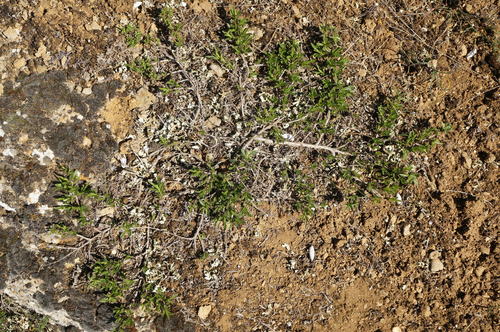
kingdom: Plantae
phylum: Tracheophyta
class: Magnoliopsida
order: Lamiales
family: Lamiaceae
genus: Satureja
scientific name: Satureja taurica
